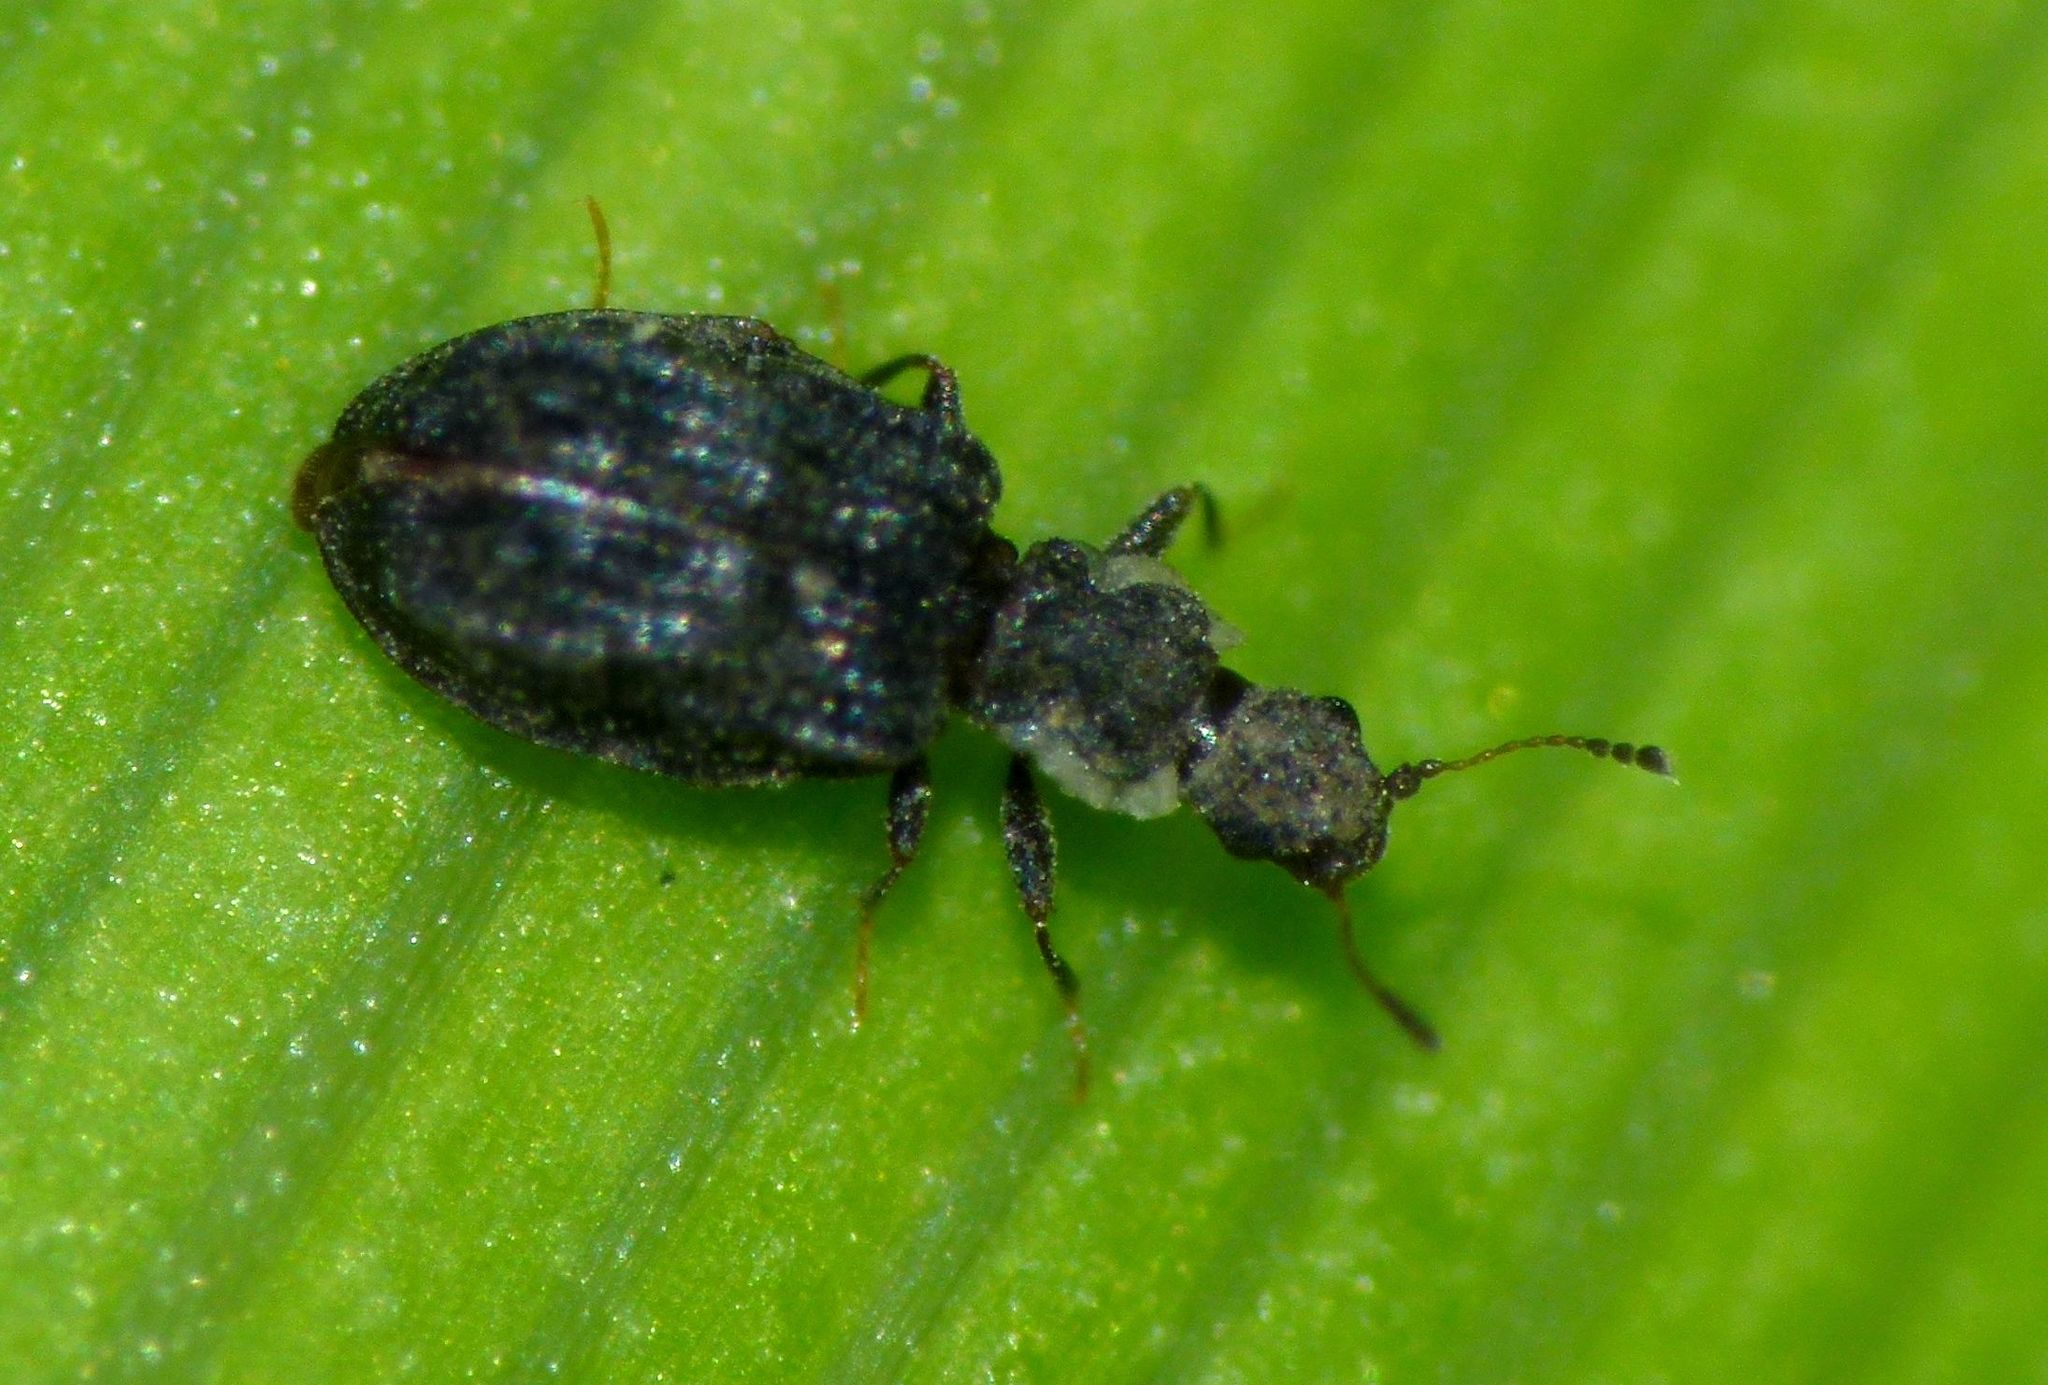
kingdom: Animalia
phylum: Arthropoda
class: Insecta
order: Coleoptera
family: Latridiidae
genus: Cartodere
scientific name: Cartodere nodifer
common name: Humpbacked minute scavenger beetle
